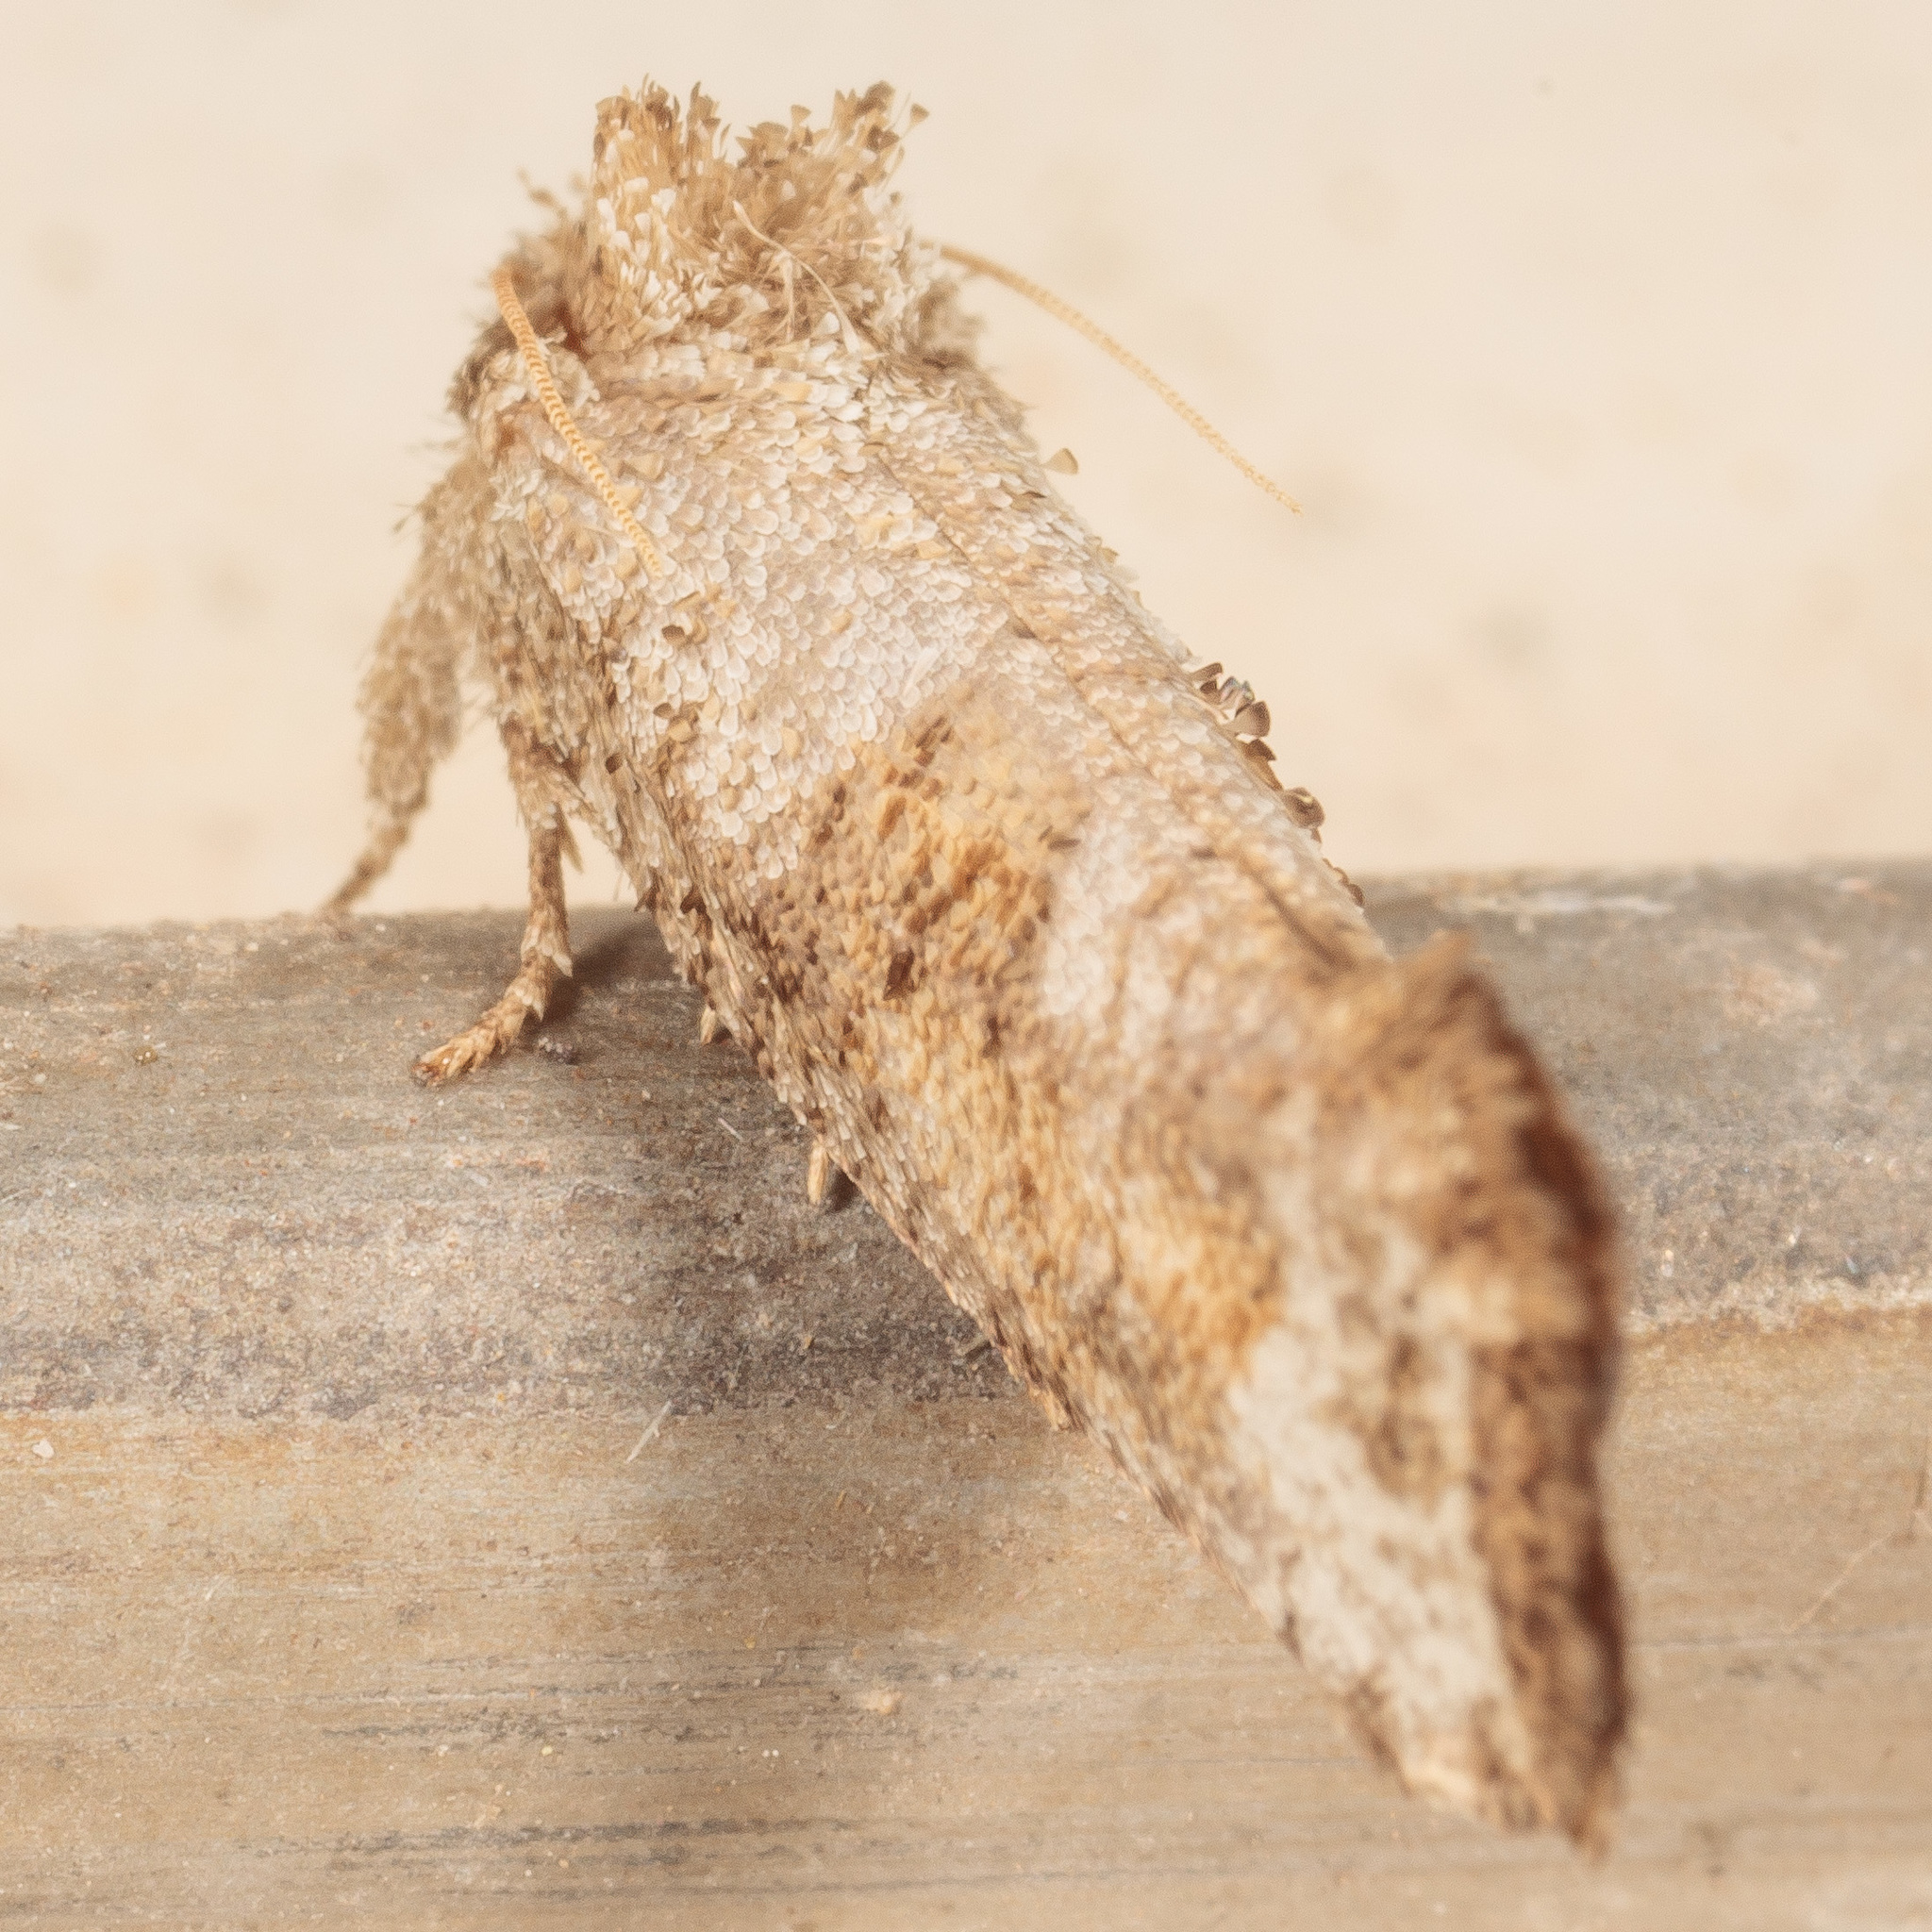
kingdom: Animalia
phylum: Arthropoda
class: Insecta
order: Lepidoptera
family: Tineidae
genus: Acrolophus
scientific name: Acrolophus piger
